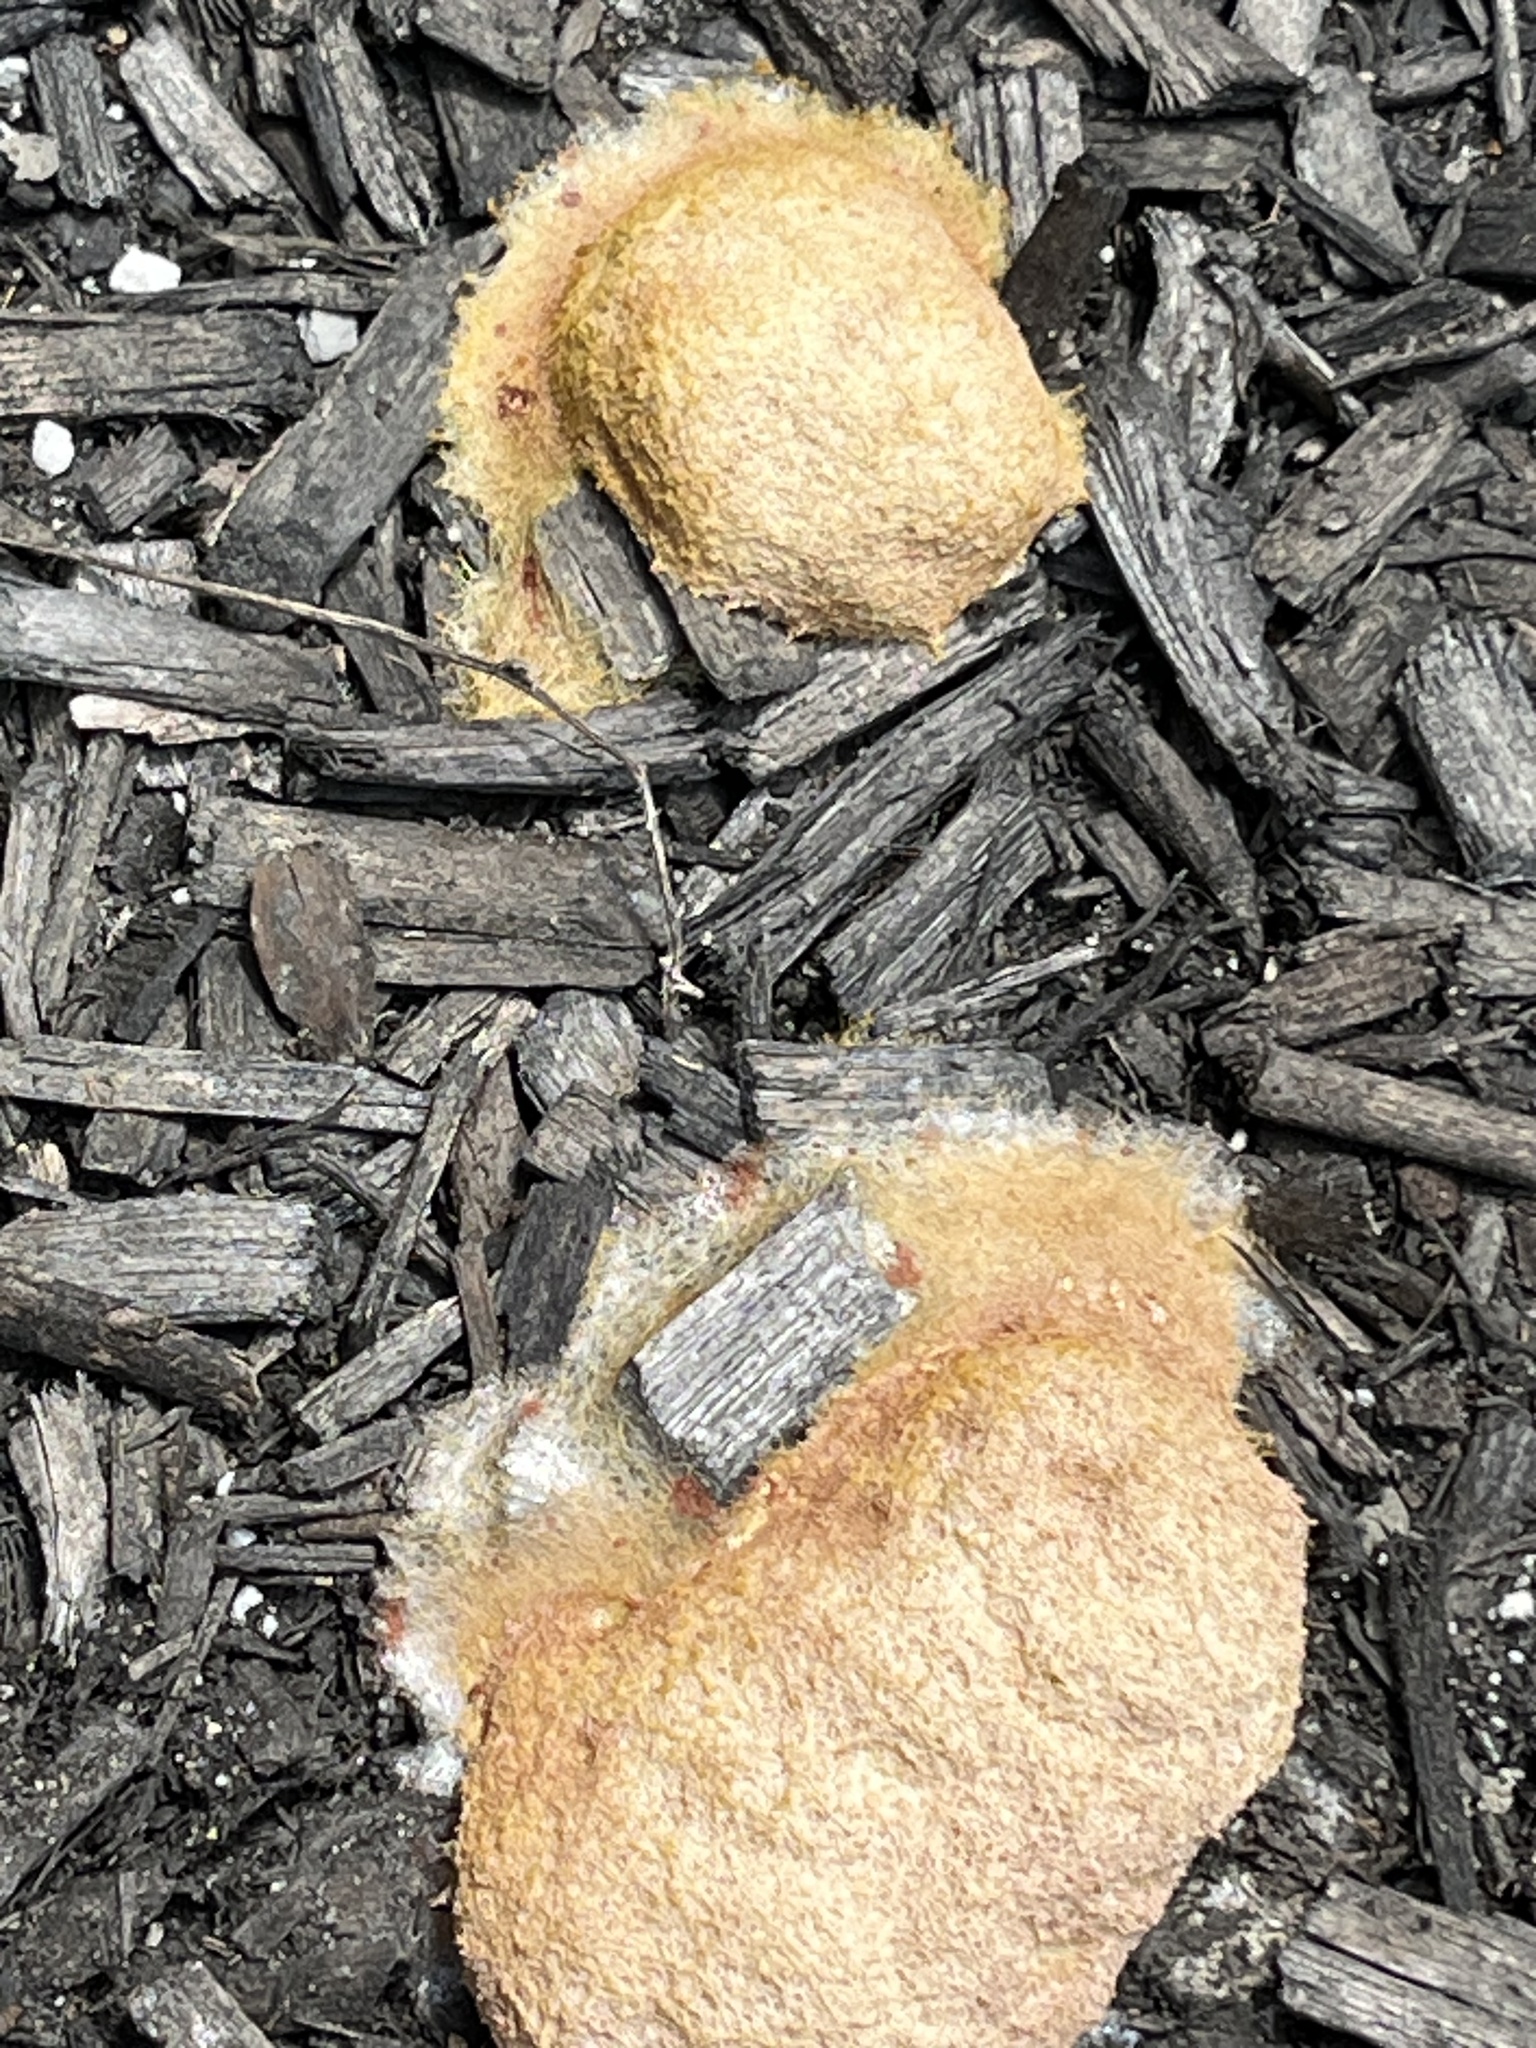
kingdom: Protozoa
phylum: Mycetozoa
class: Myxomycetes
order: Physarales
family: Physaraceae
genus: Fuligo
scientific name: Fuligo septica
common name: Dog vomit slime mold
